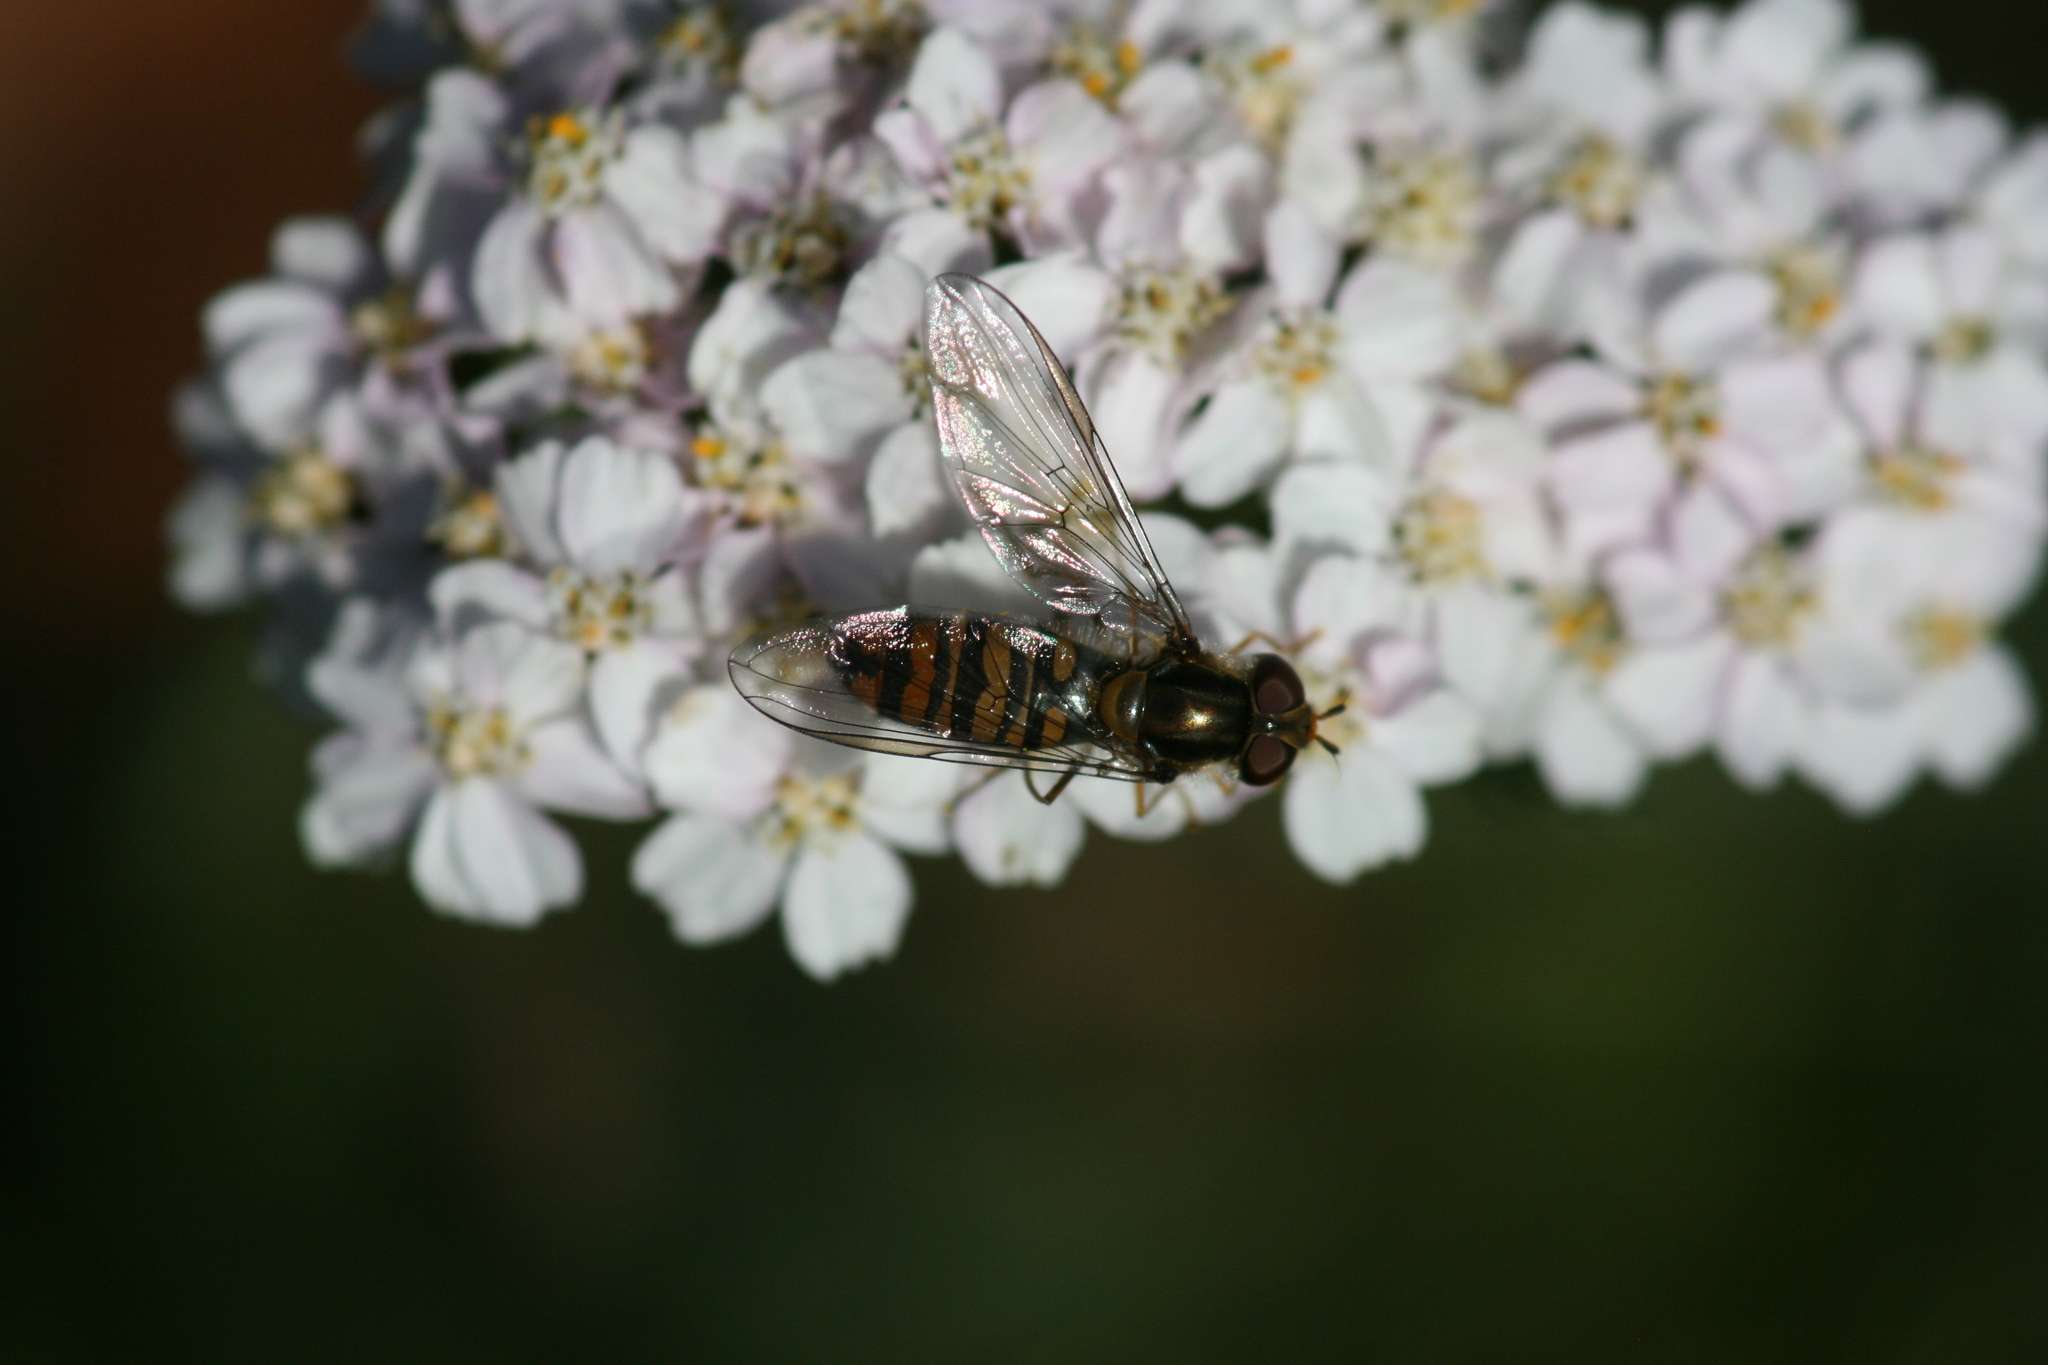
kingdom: Animalia
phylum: Arthropoda
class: Insecta
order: Diptera
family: Syrphidae
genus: Episyrphus
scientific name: Episyrphus balteatus
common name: Marmalade hoverfly
